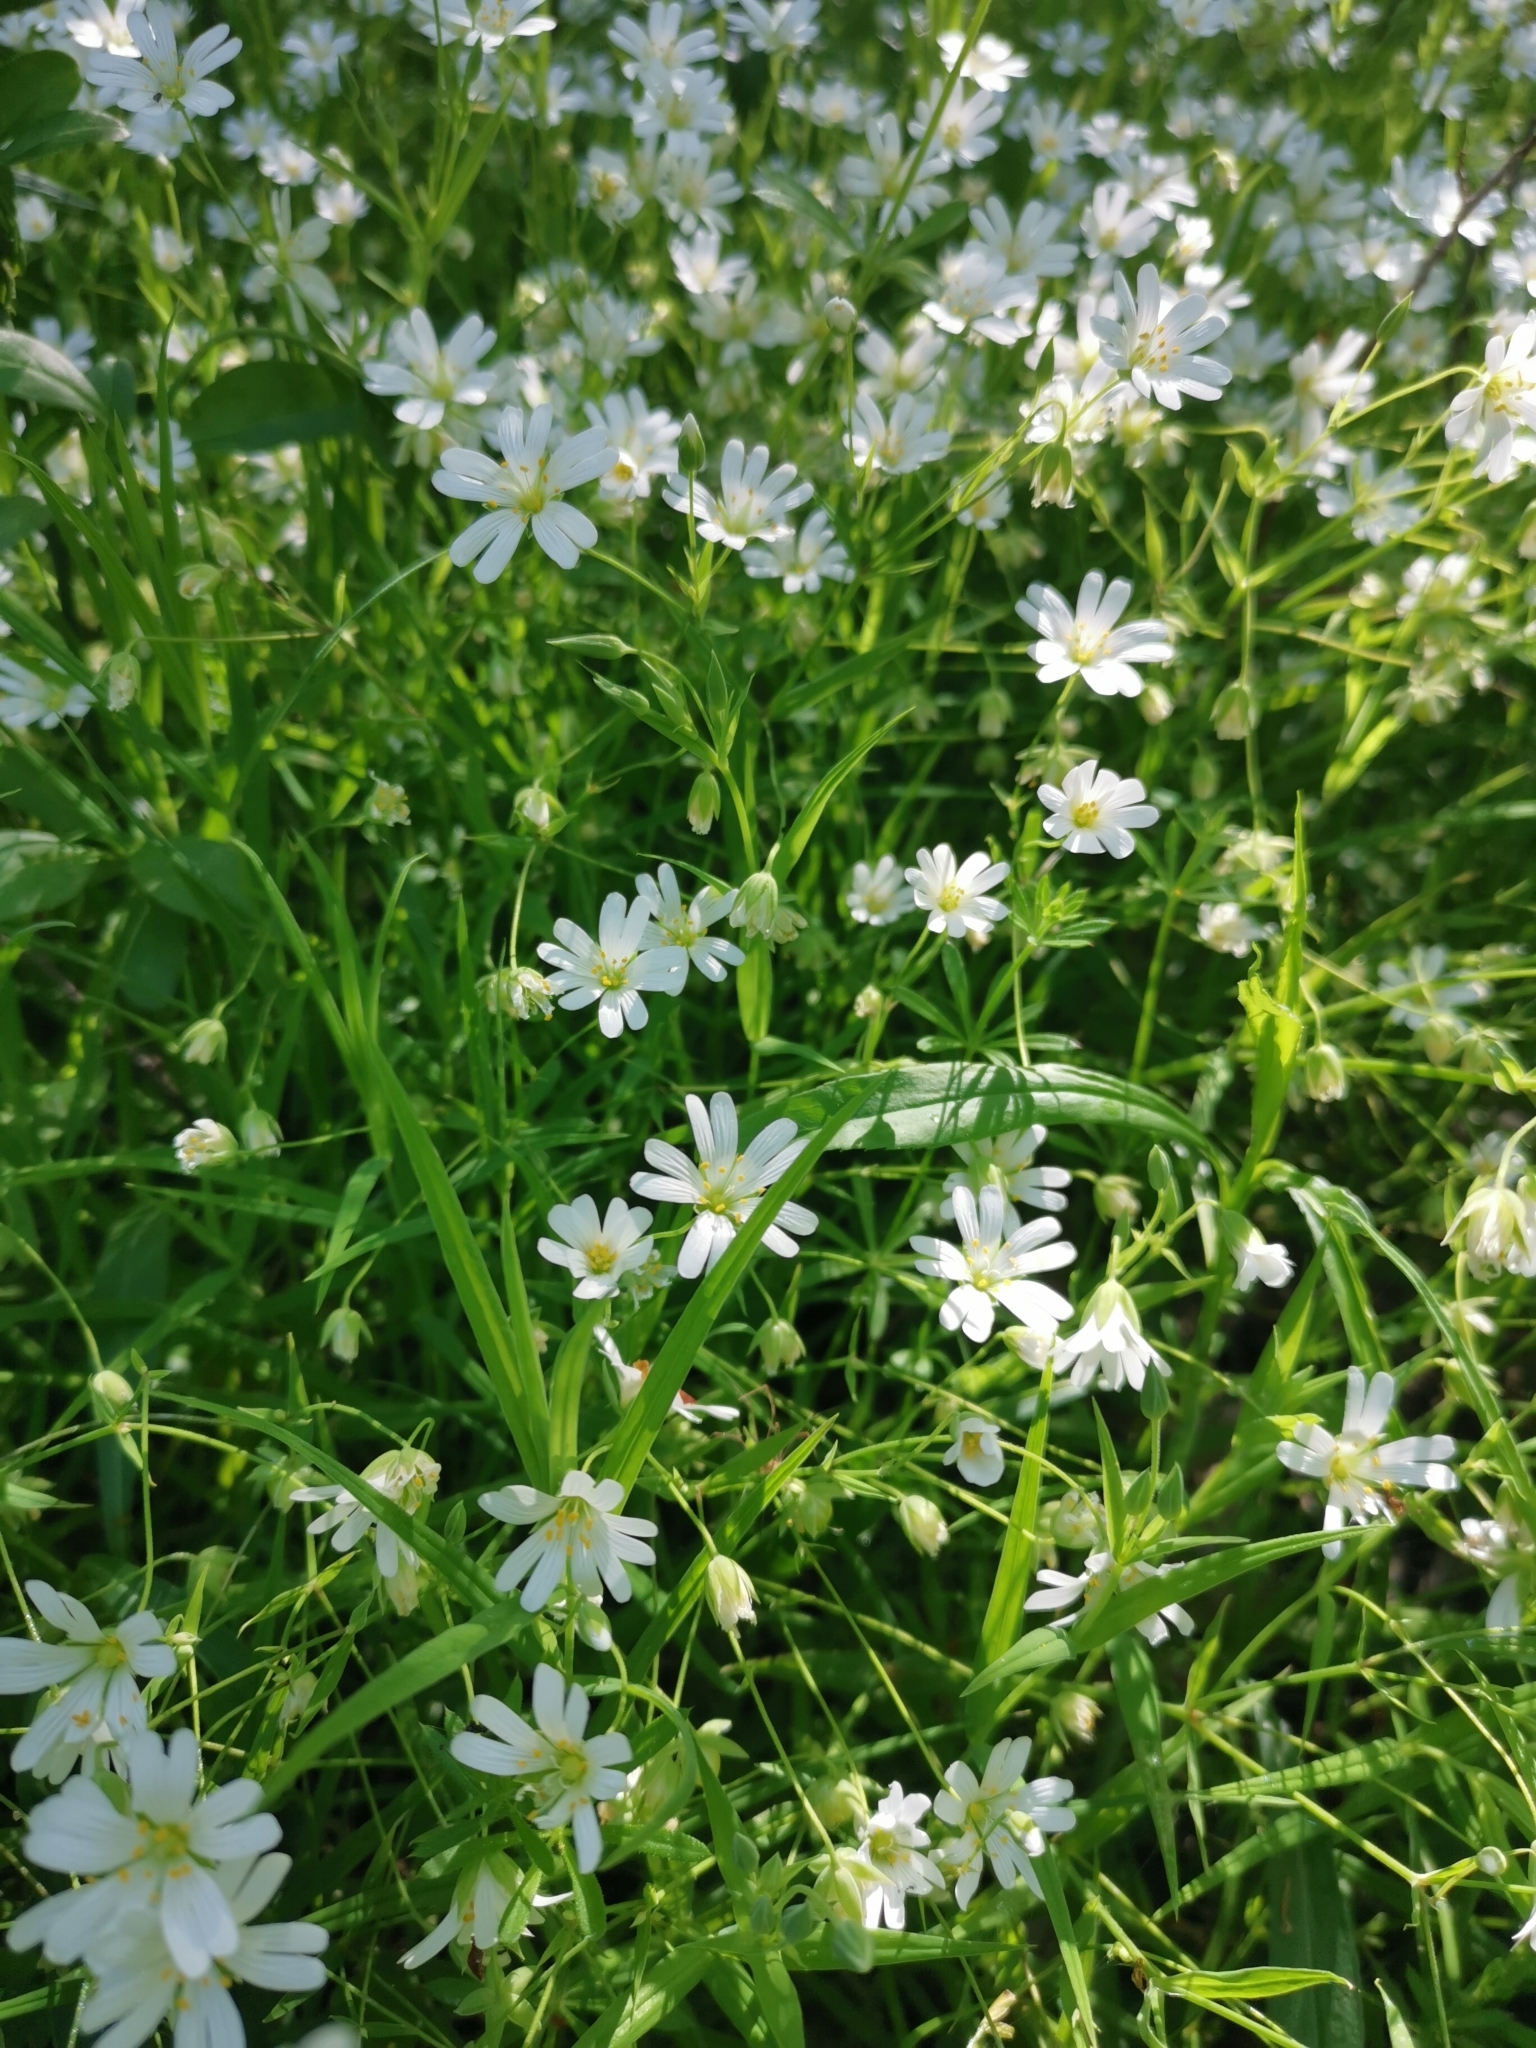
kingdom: Plantae
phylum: Tracheophyta
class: Magnoliopsida
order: Caryophyllales
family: Caryophyllaceae
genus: Rabelera
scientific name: Rabelera holostea
